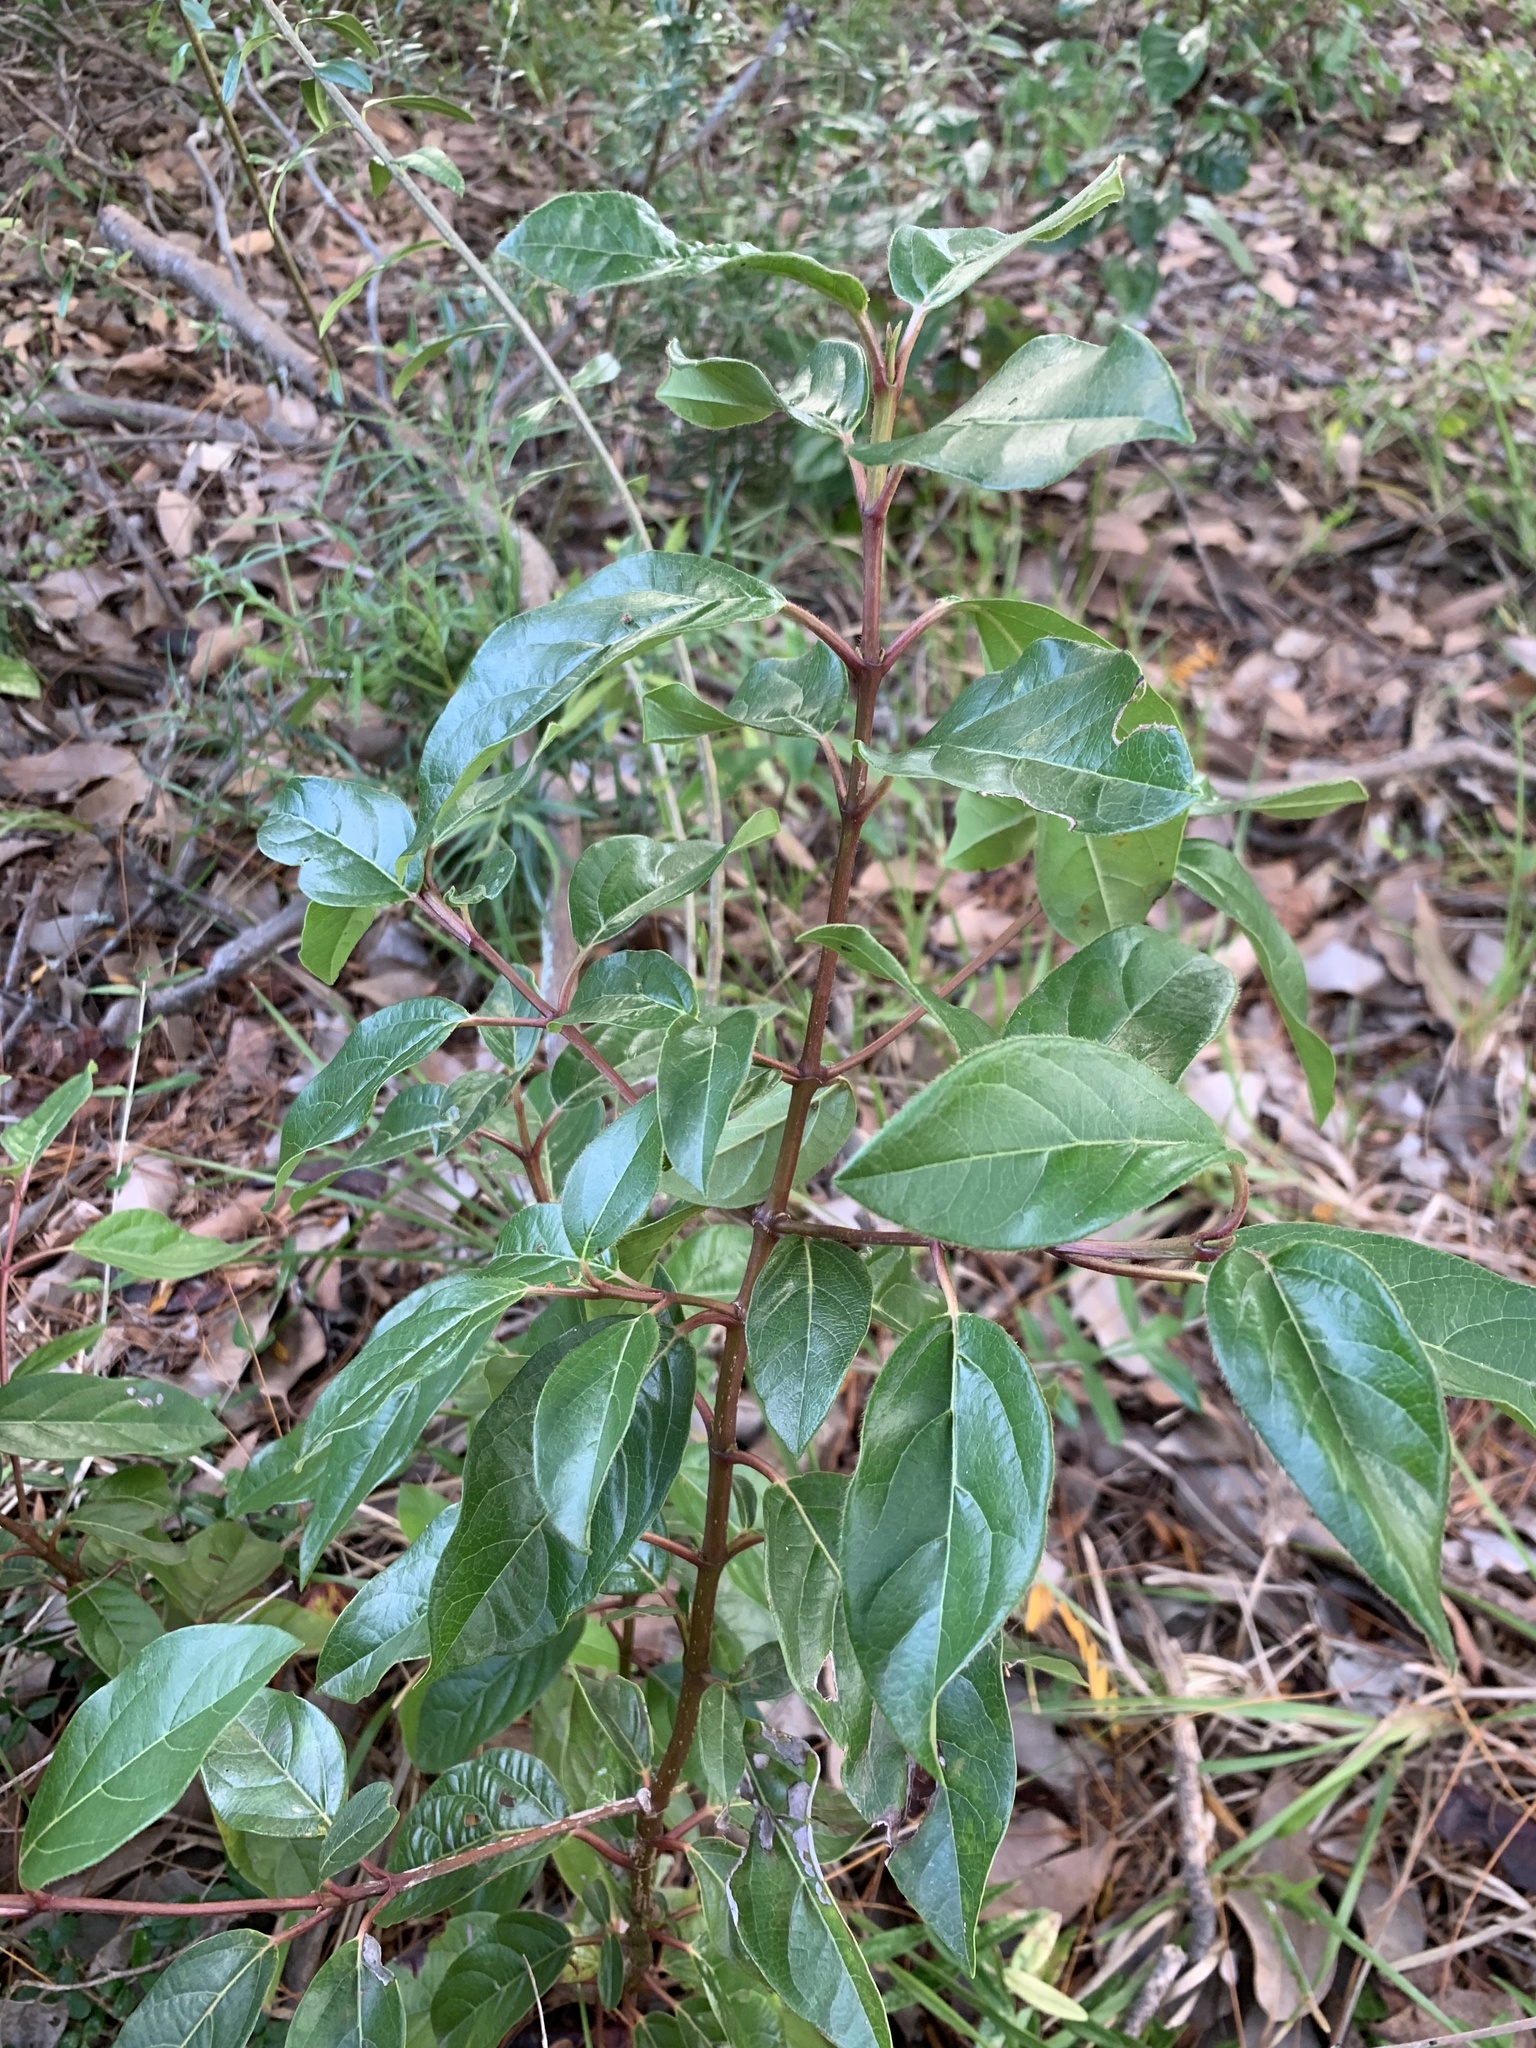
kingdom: Plantae
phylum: Tracheophyta
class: Magnoliopsida
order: Dipsacales
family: Viburnaceae
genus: Viburnum
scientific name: Viburnum tinus
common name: Laurustinus
